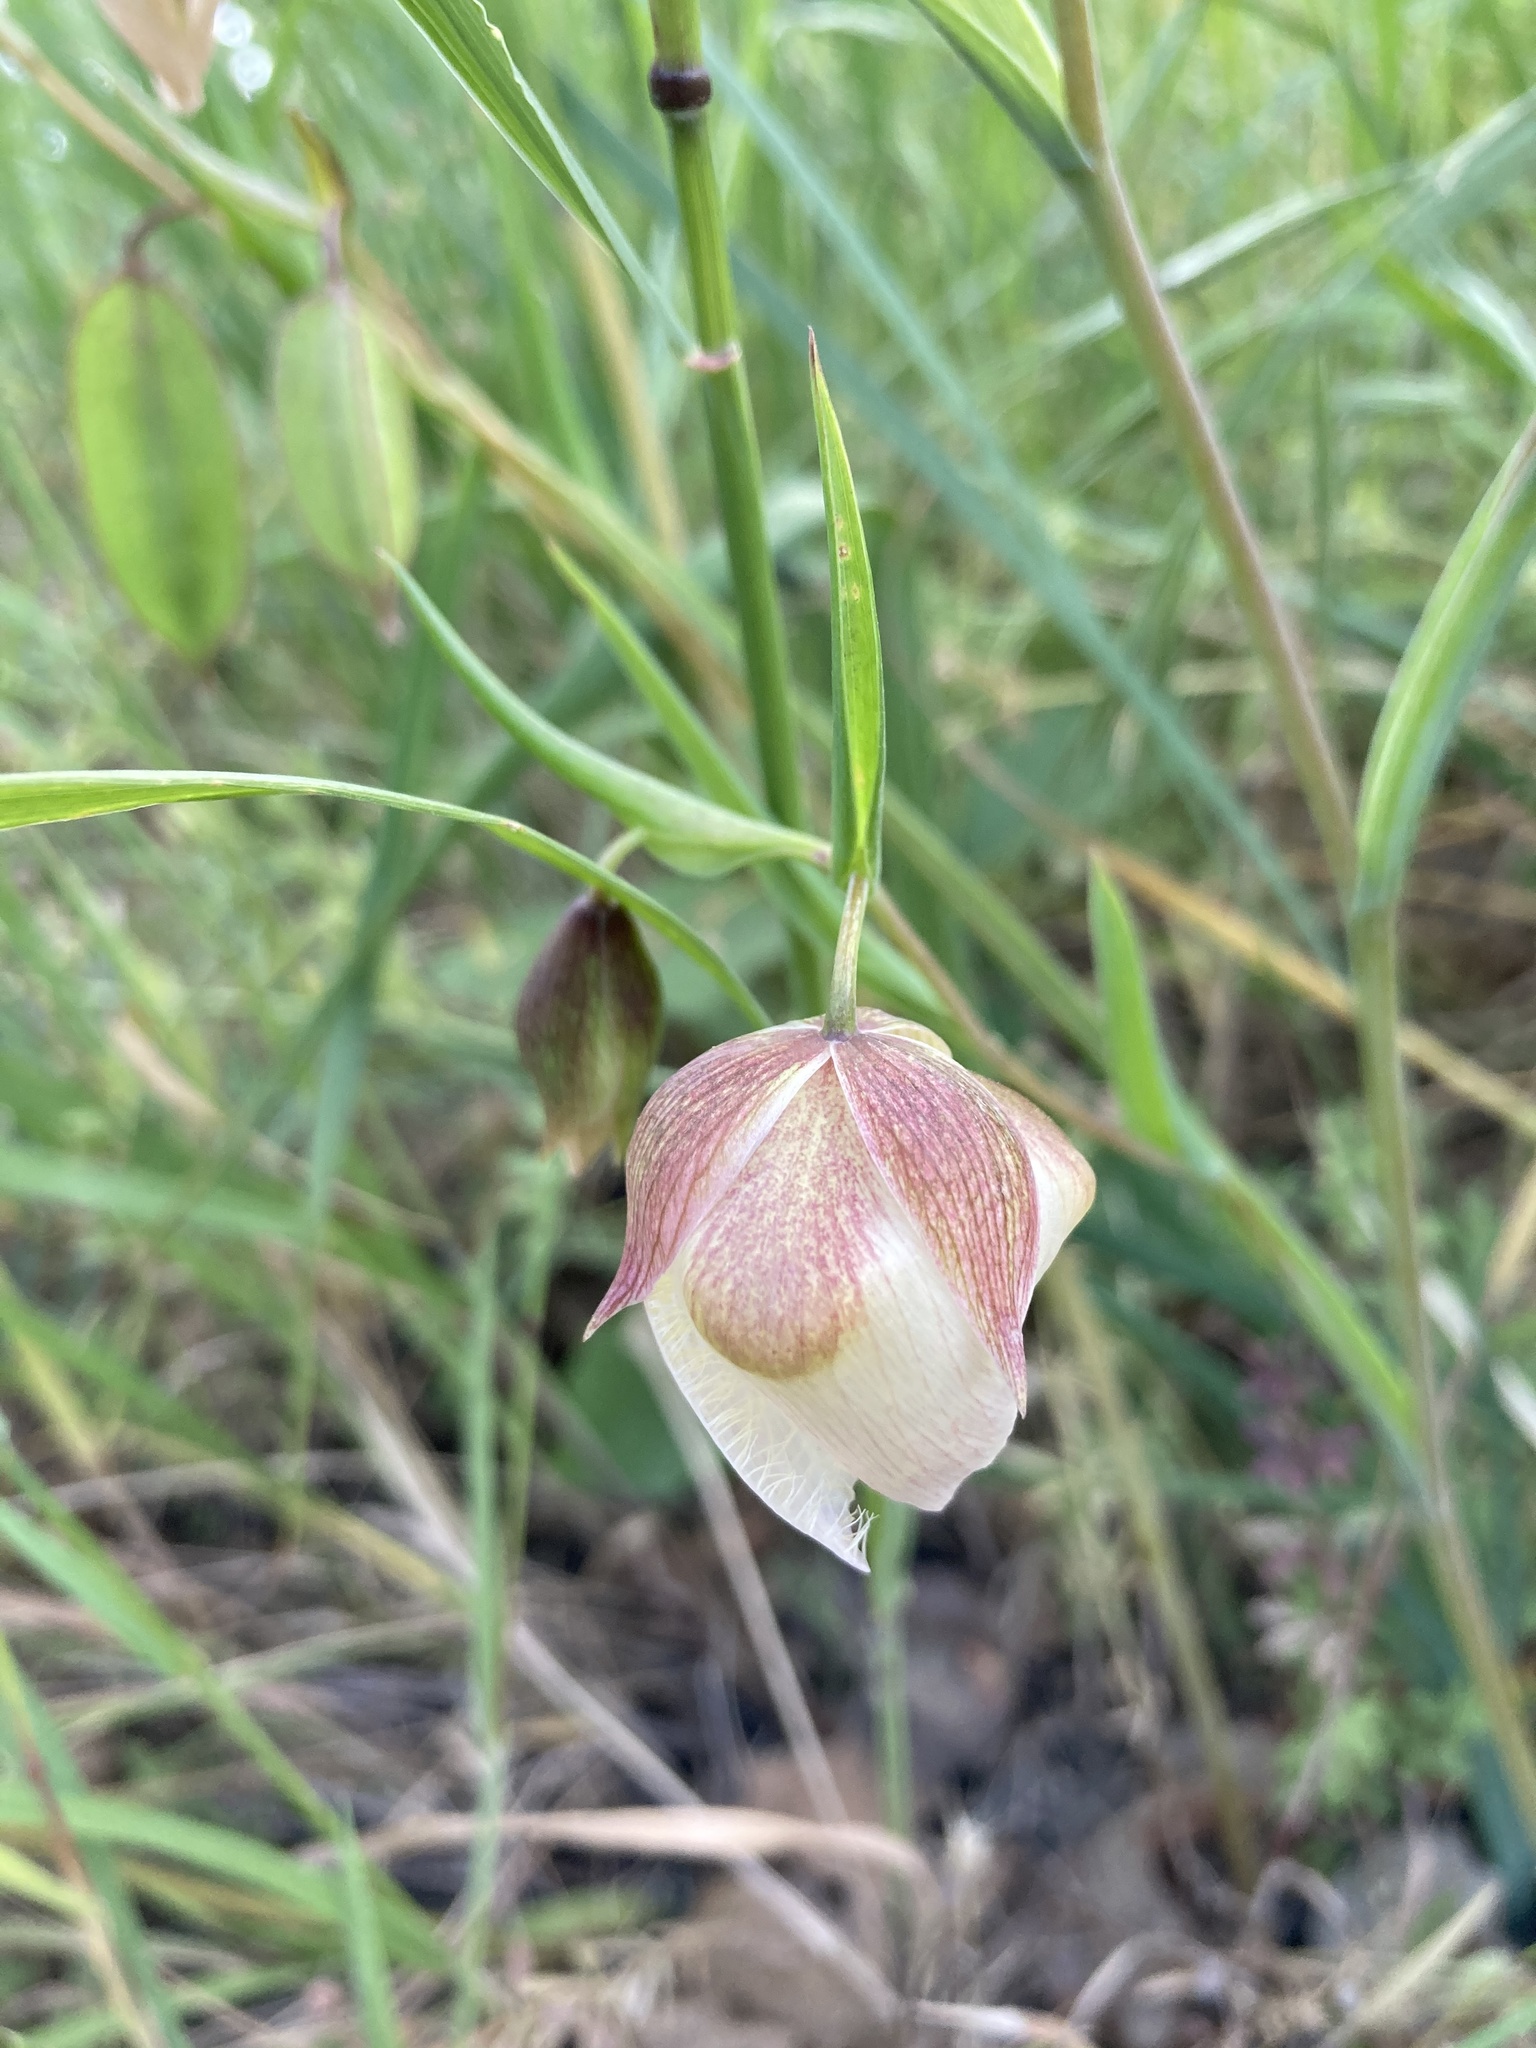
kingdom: Plantae
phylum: Tracheophyta
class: Liliopsida
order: Liliales
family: Liliaceae
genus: Calochortus
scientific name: Calochortus albus
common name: Fairy-lantern
